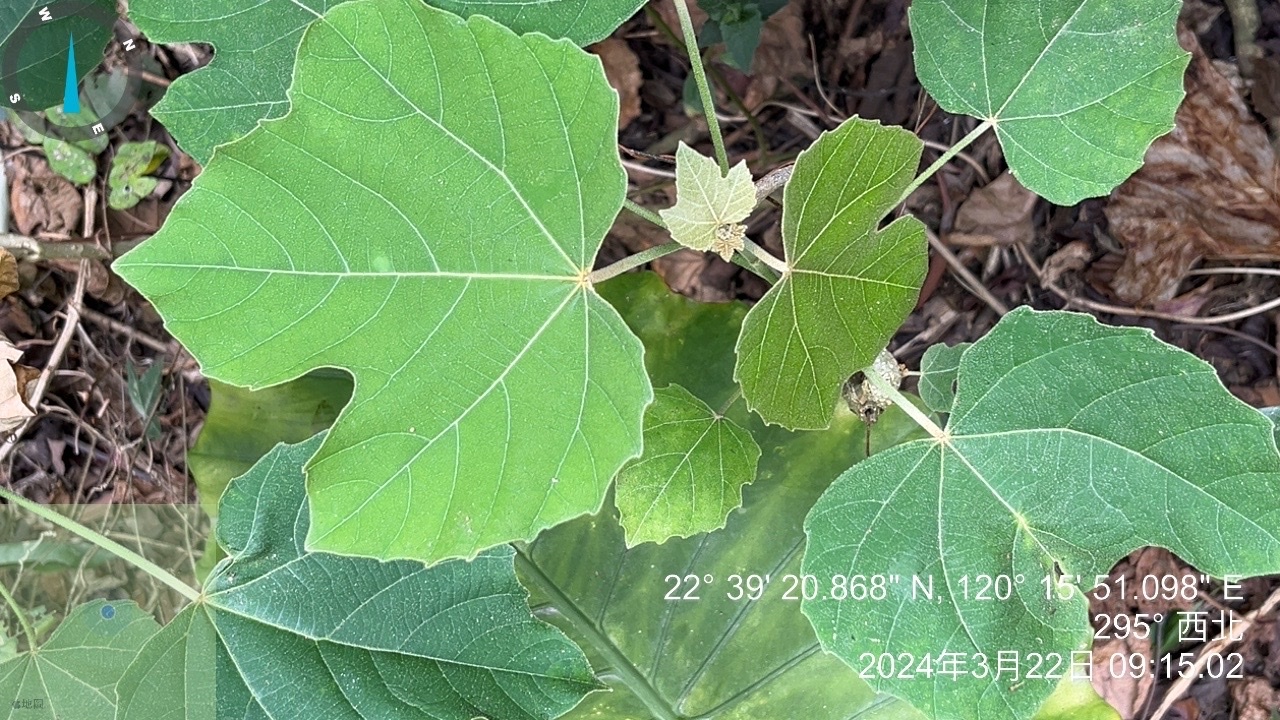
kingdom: Plantae
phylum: Tracheophyta
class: Magnoliopsida
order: Malpighiales
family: Euphorbiaceae
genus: Melanolepis
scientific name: Melanolepis multiglandulosa
